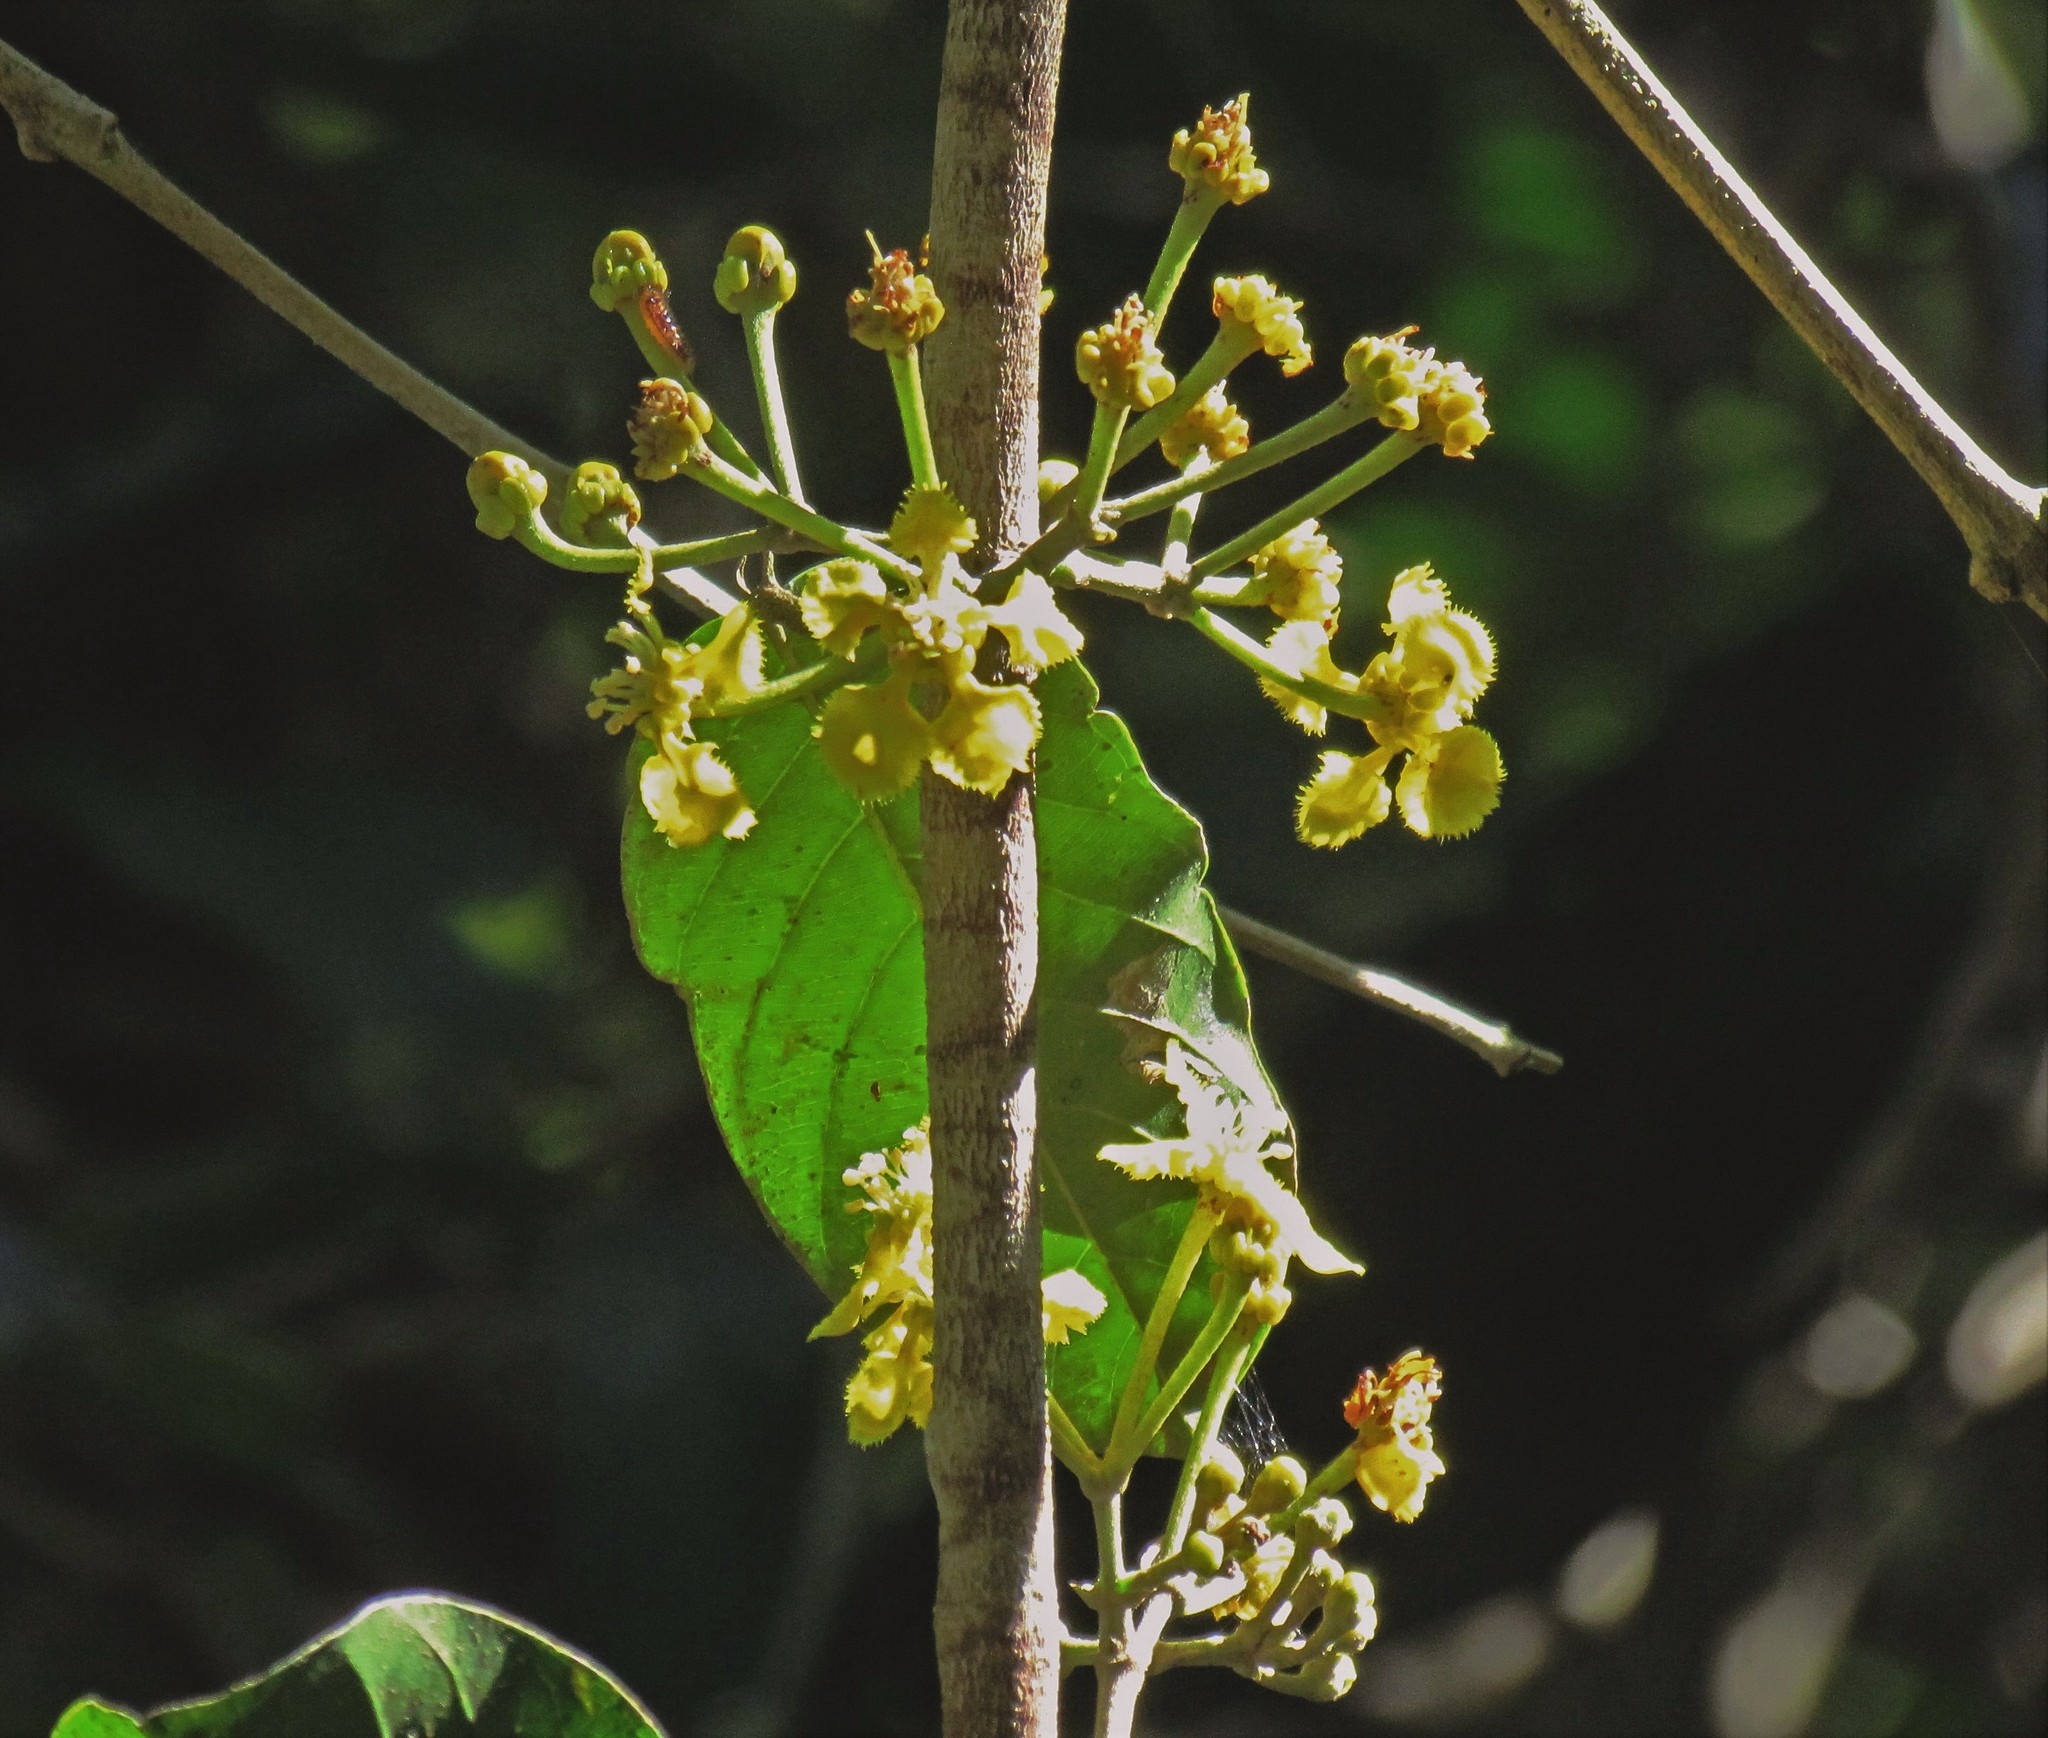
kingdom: Plantae
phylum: Tracheophyta
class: Magnoliopsida
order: Malpighiales
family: Malpighiaceae
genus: Stigmaphyllon
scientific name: Stigmaphyllon bonariense
